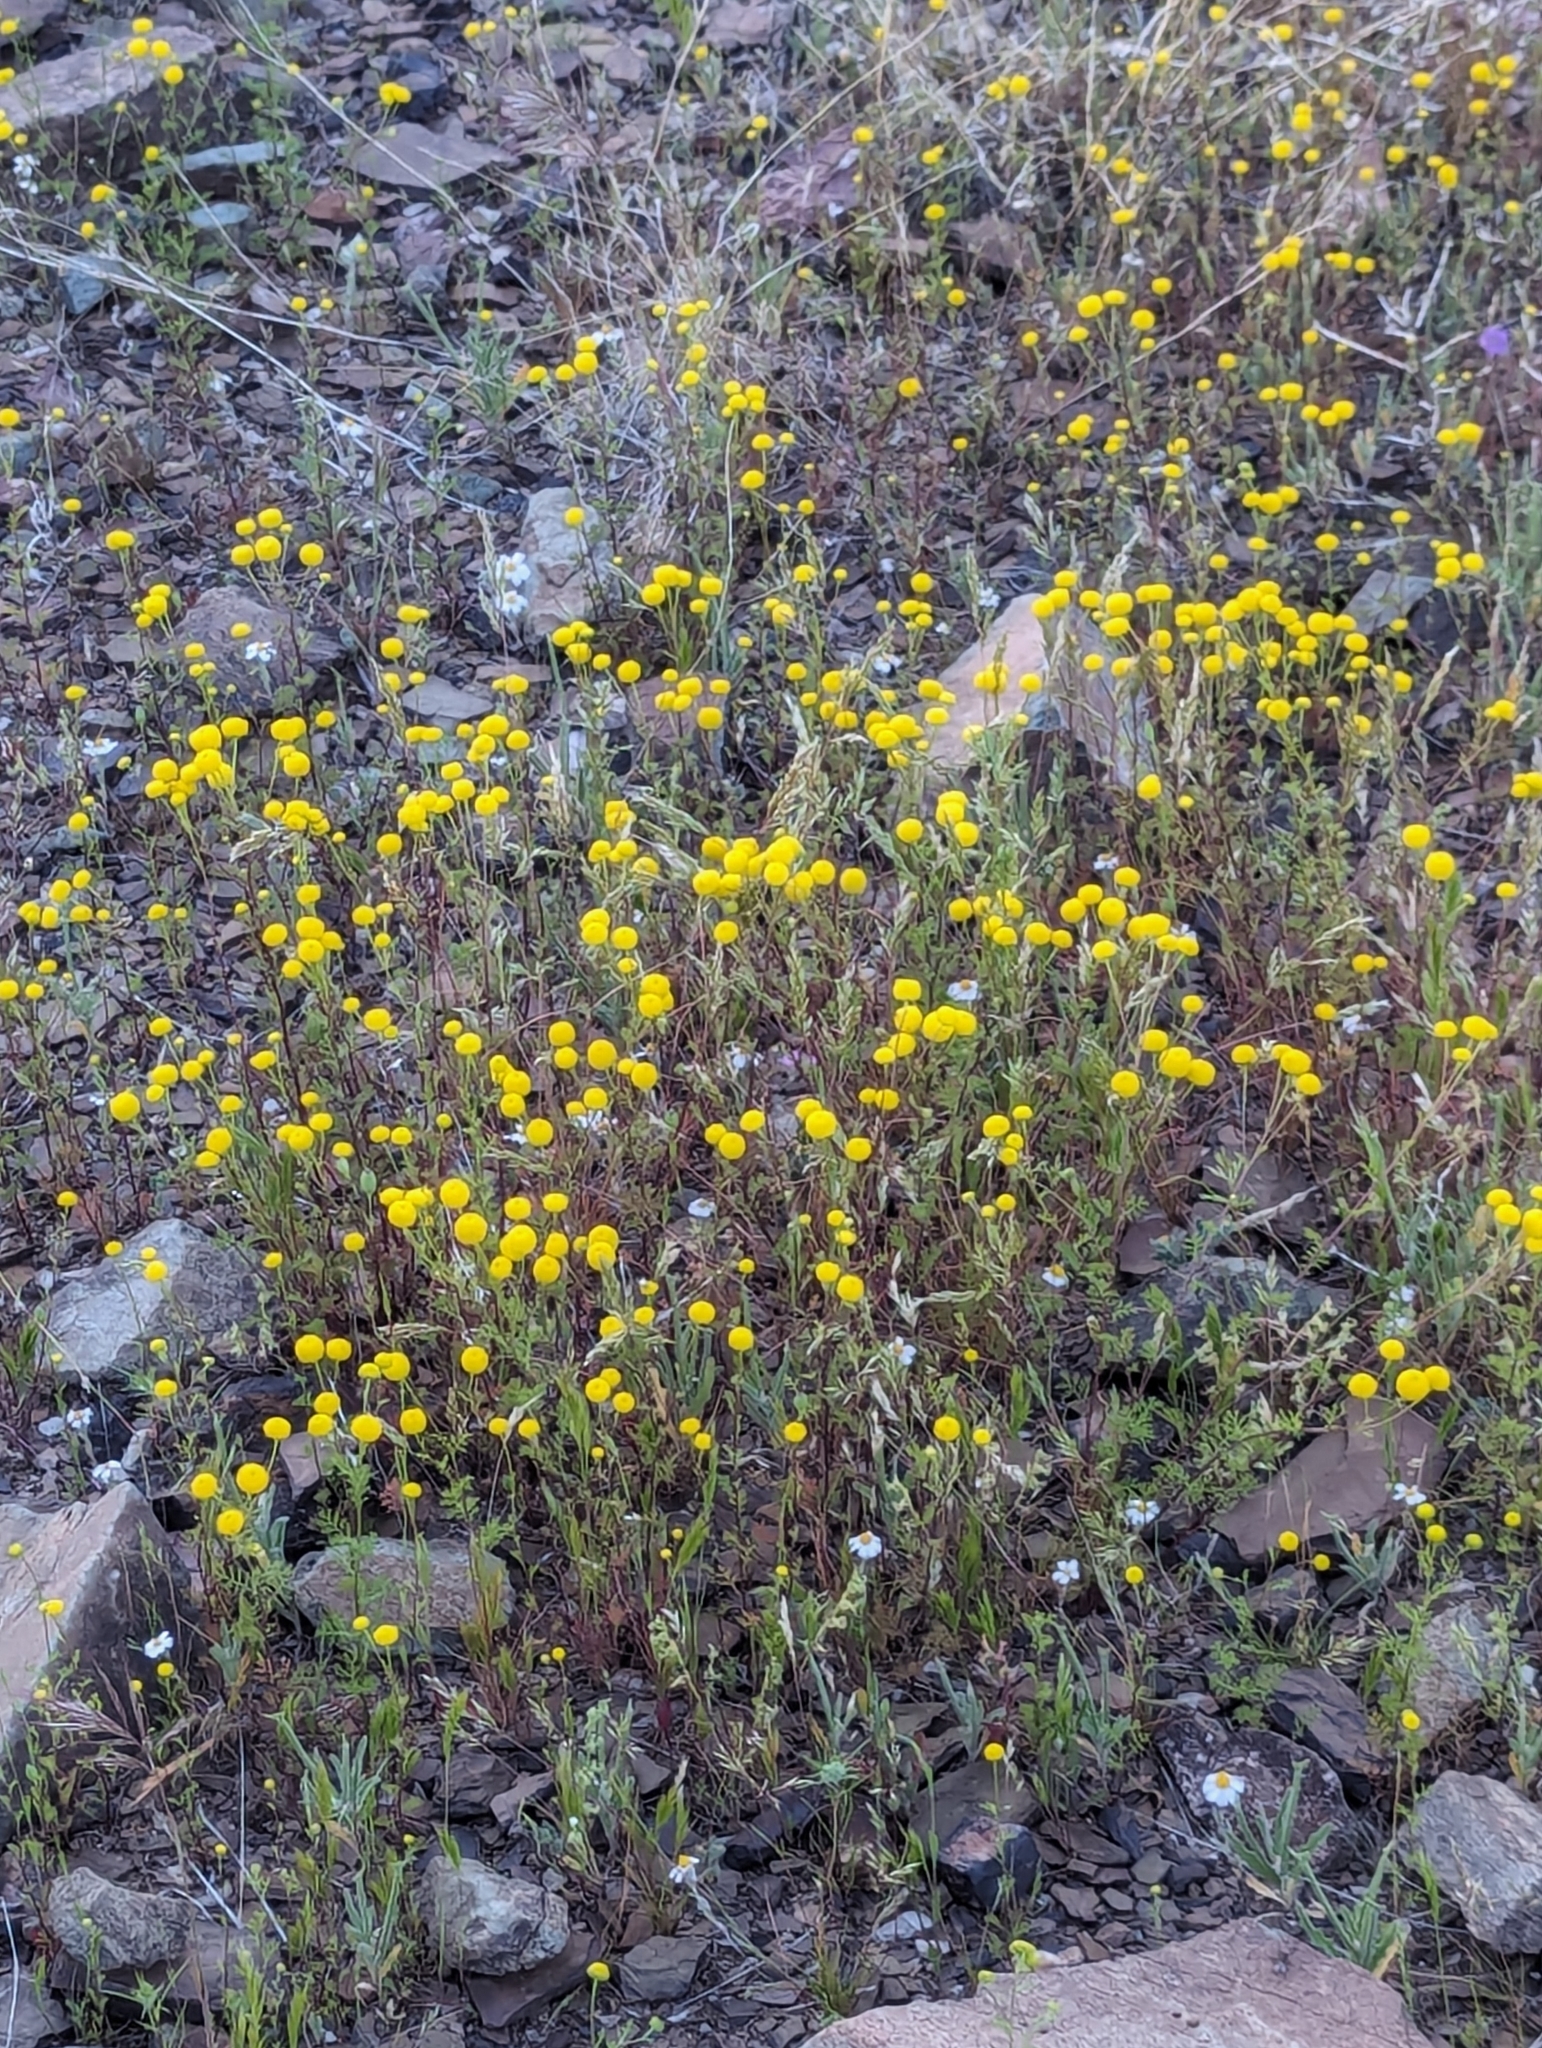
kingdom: Plantae
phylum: Tracheophyta
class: Magnoliopsida
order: Asterales
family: Asteraceae
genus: Oncosiphon
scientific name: Oncosiphon pilulifer
